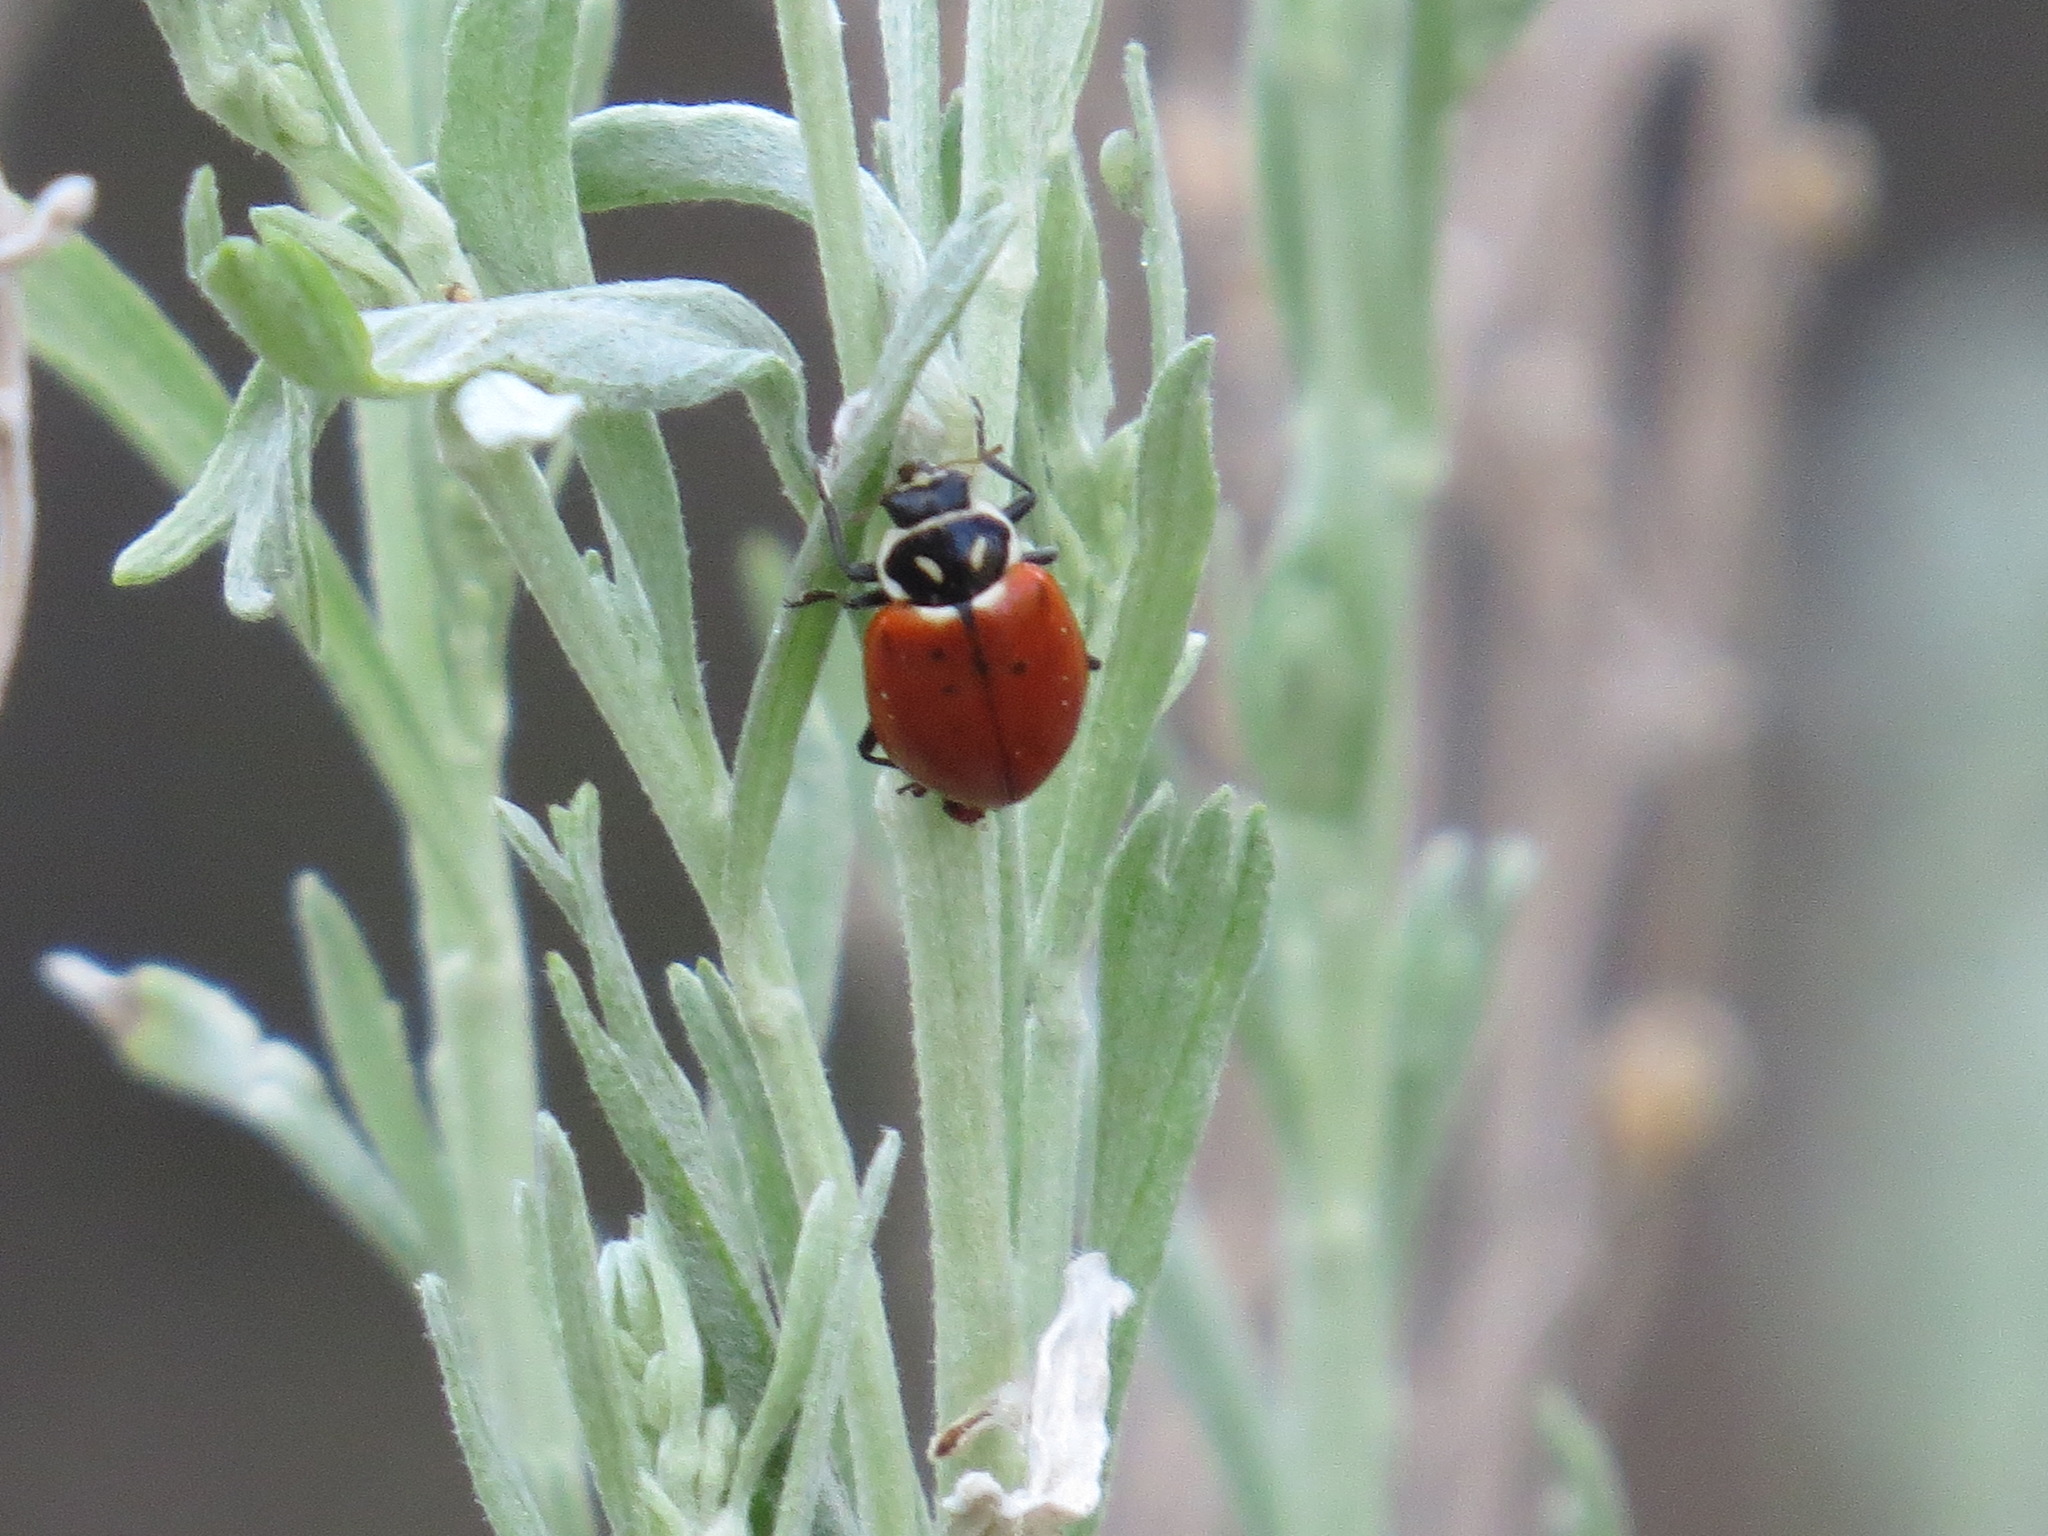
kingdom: Animalia
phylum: Arthropoda
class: Insecta
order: Coleoptera
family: Coccinellidae
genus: Hippodamia
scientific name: Hippodamia convergens
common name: Convergent lady beetle
